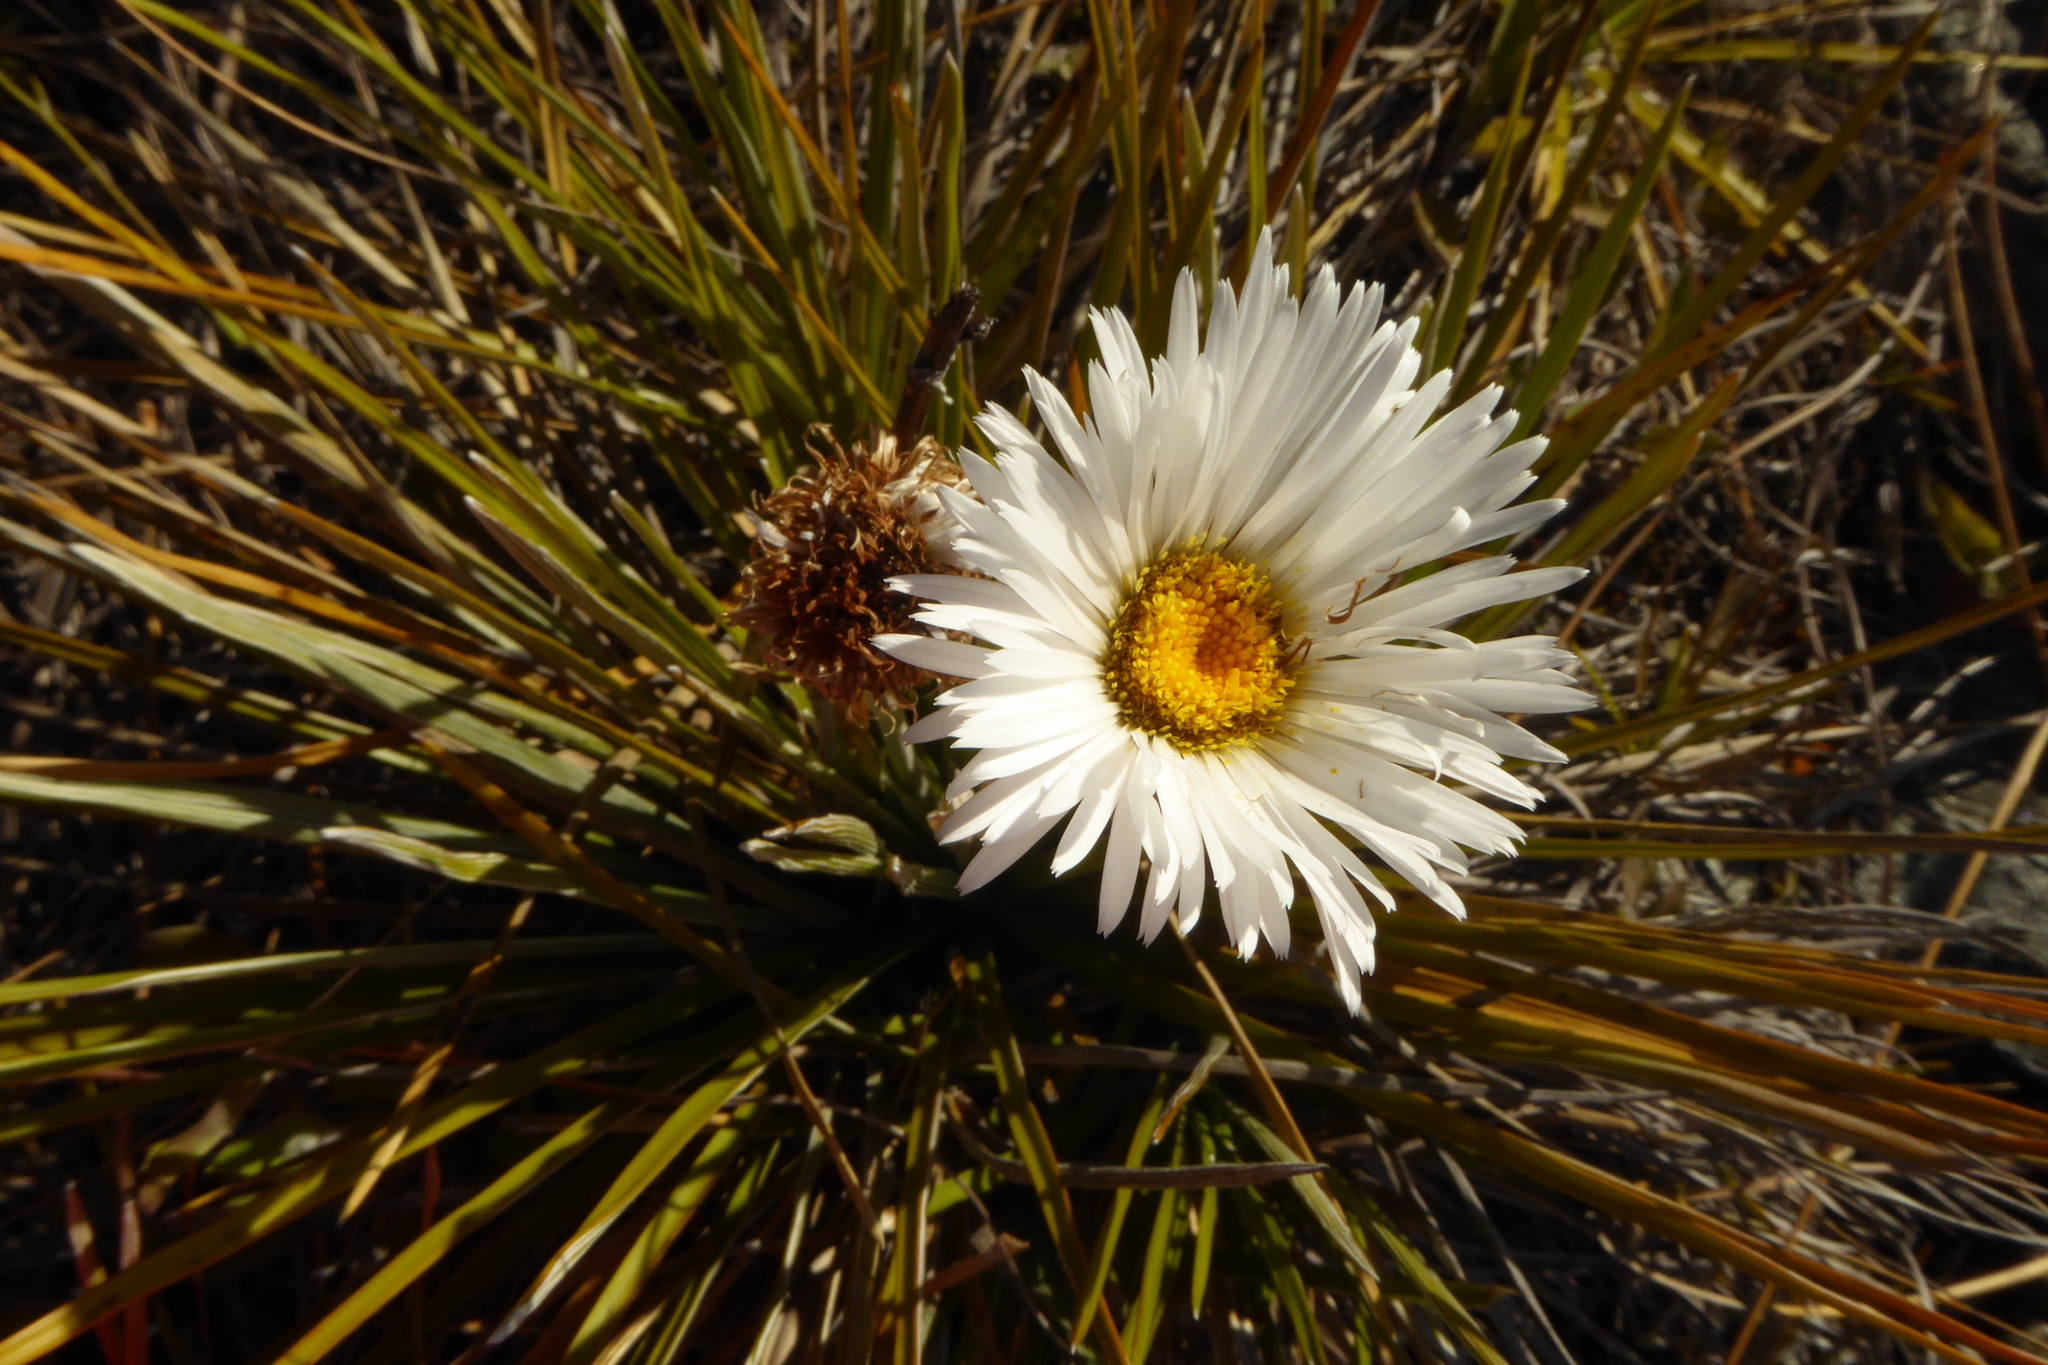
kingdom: Plantae
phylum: Tracheophyta
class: Magnoliopsida
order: Asterales
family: Asteraceae
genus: Celmisia
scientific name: Celmisia lyallii
